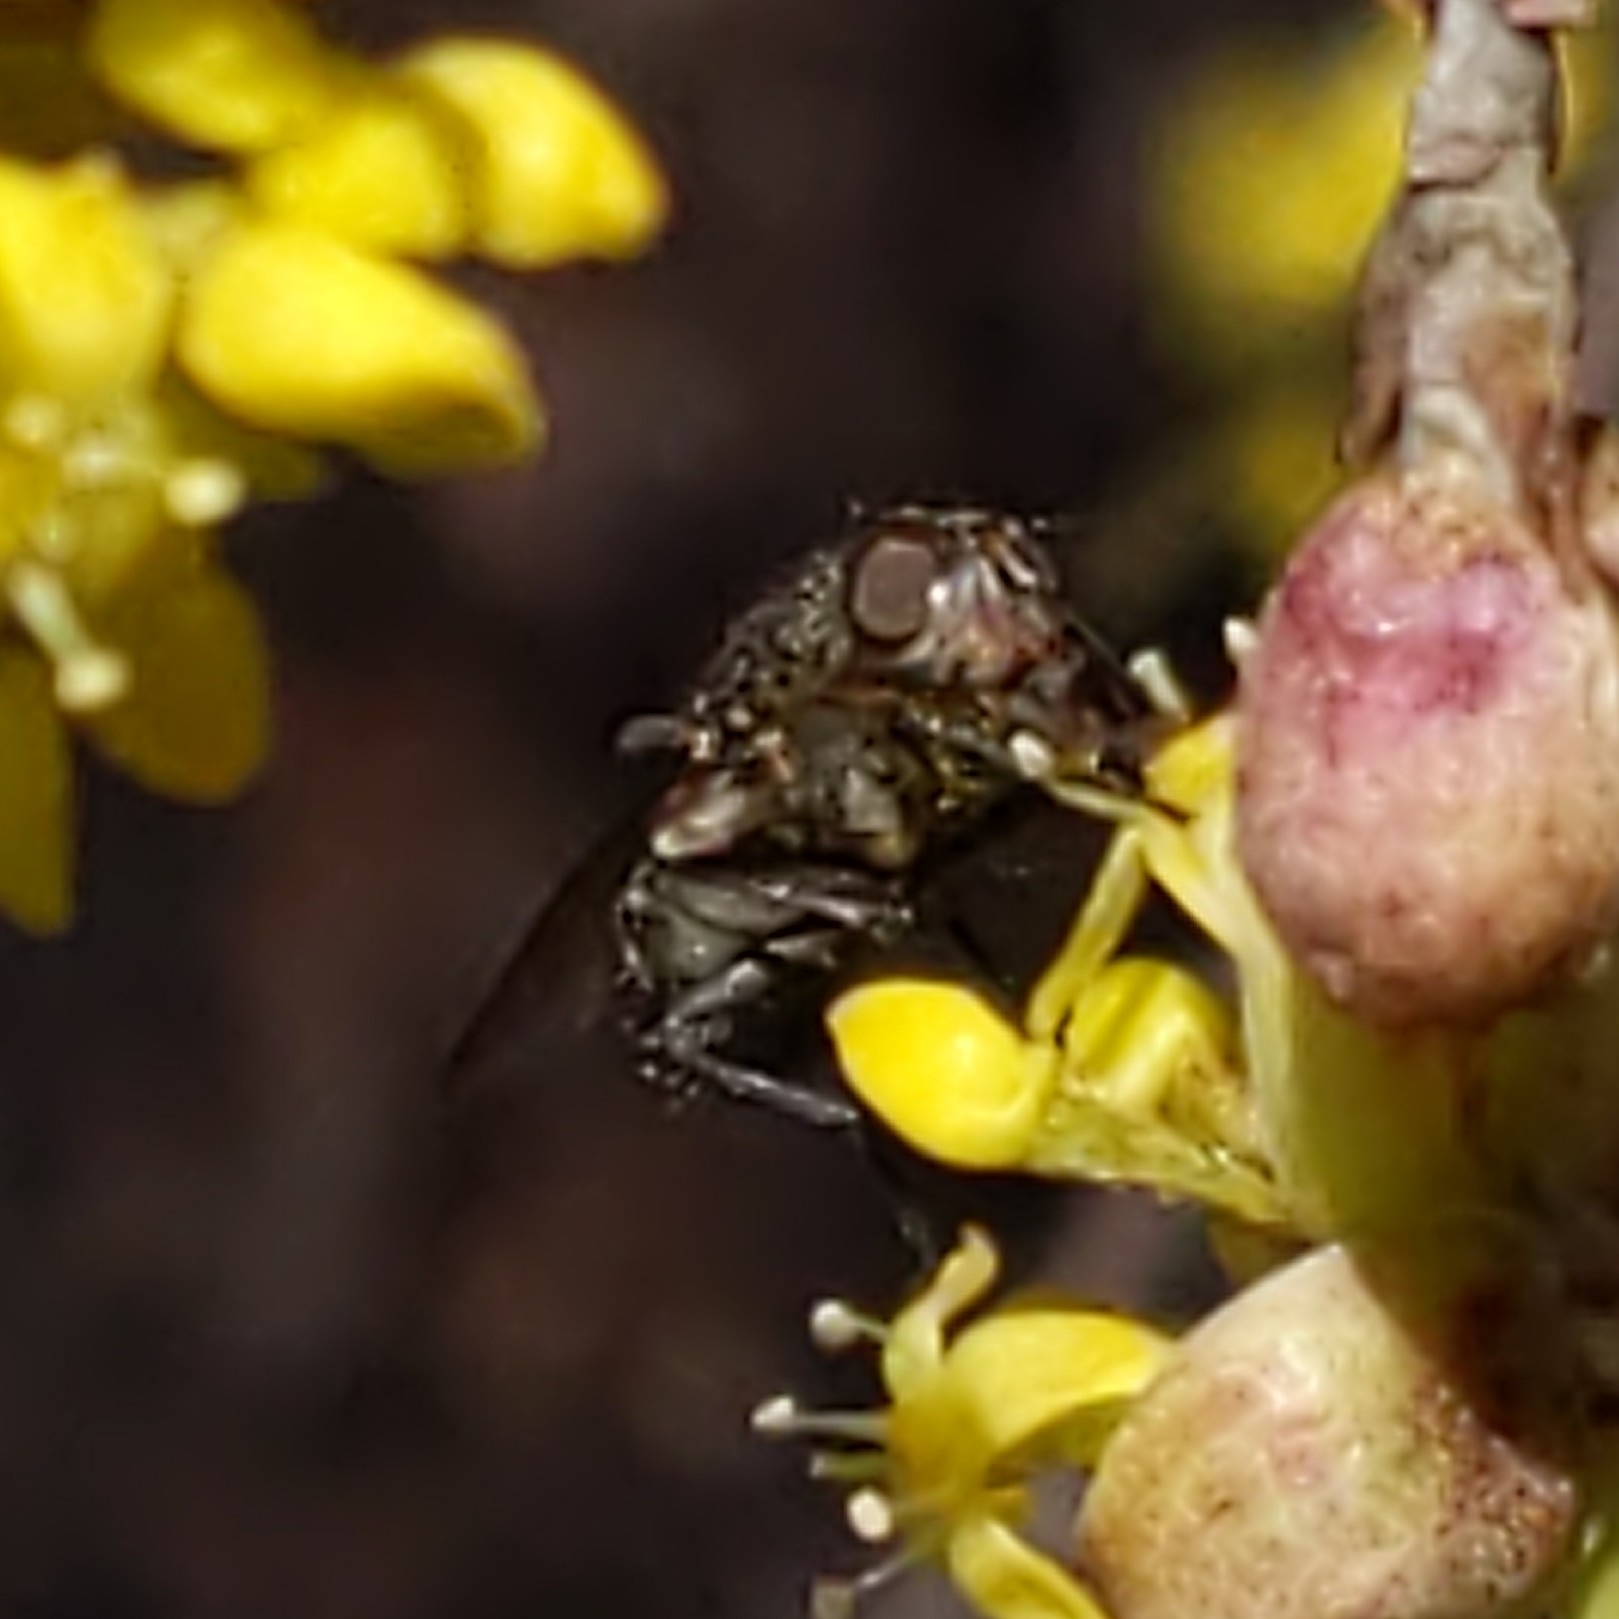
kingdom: Animalia
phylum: Arthropoda
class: Insecta
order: Diptera
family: Polleniidae
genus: Pollenia
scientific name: Pollenia
